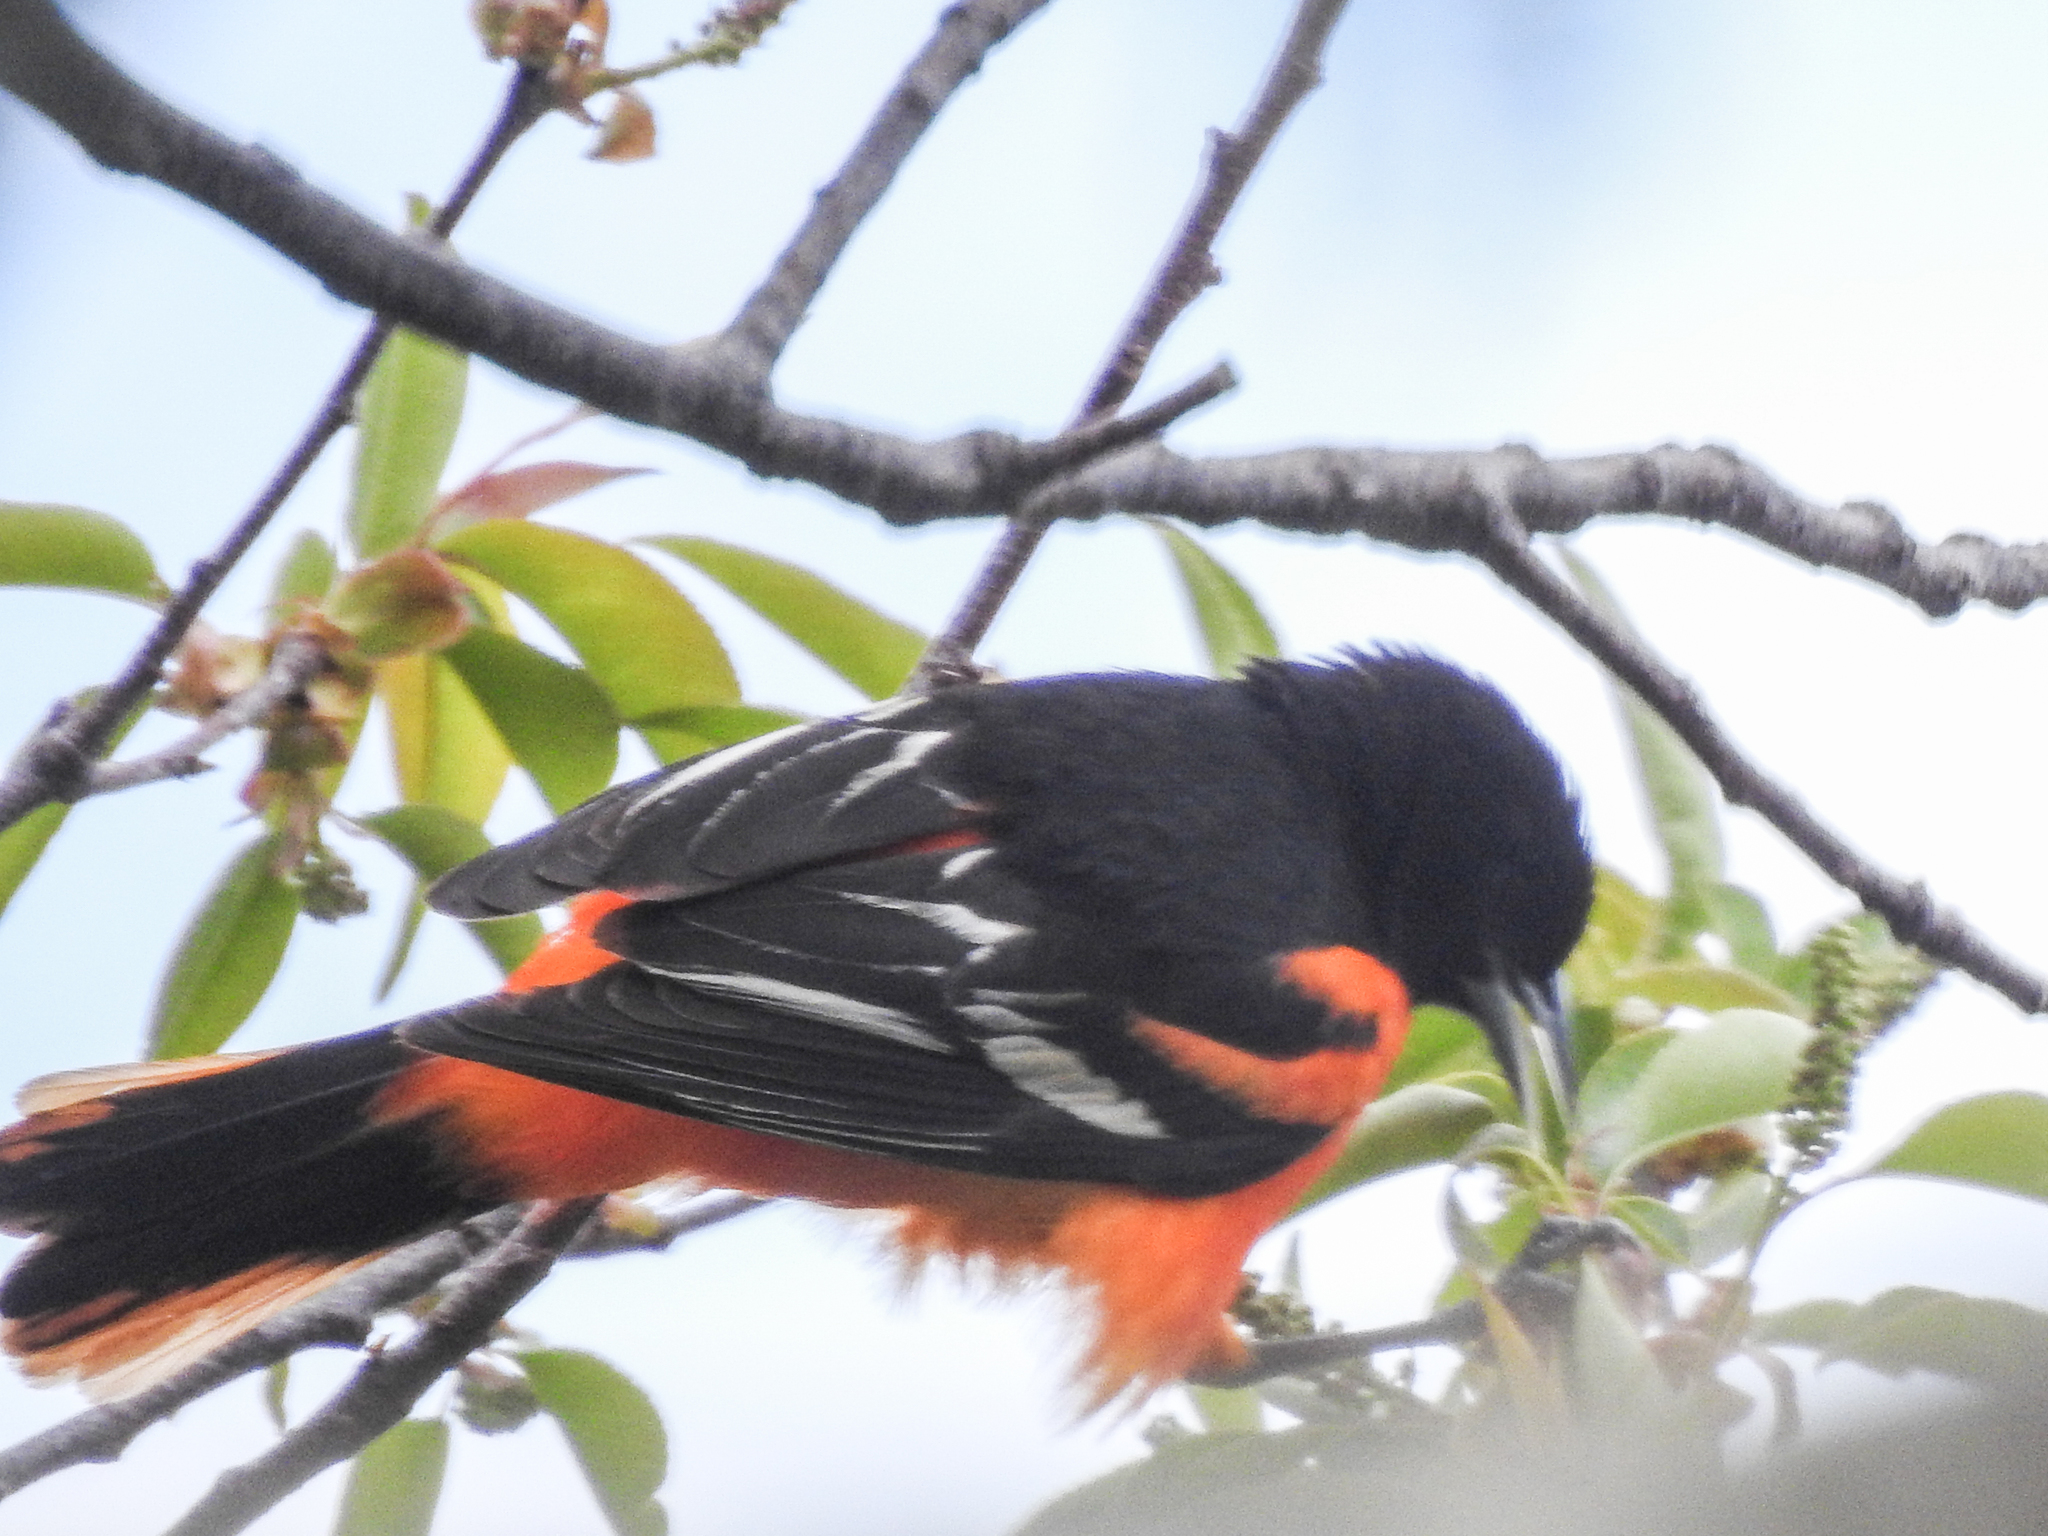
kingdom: Animalia
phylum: Chordata
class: Aves
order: Passeriformes
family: Icteridae
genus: Icterus
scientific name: Icterus galbula
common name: Baltimore oriole
